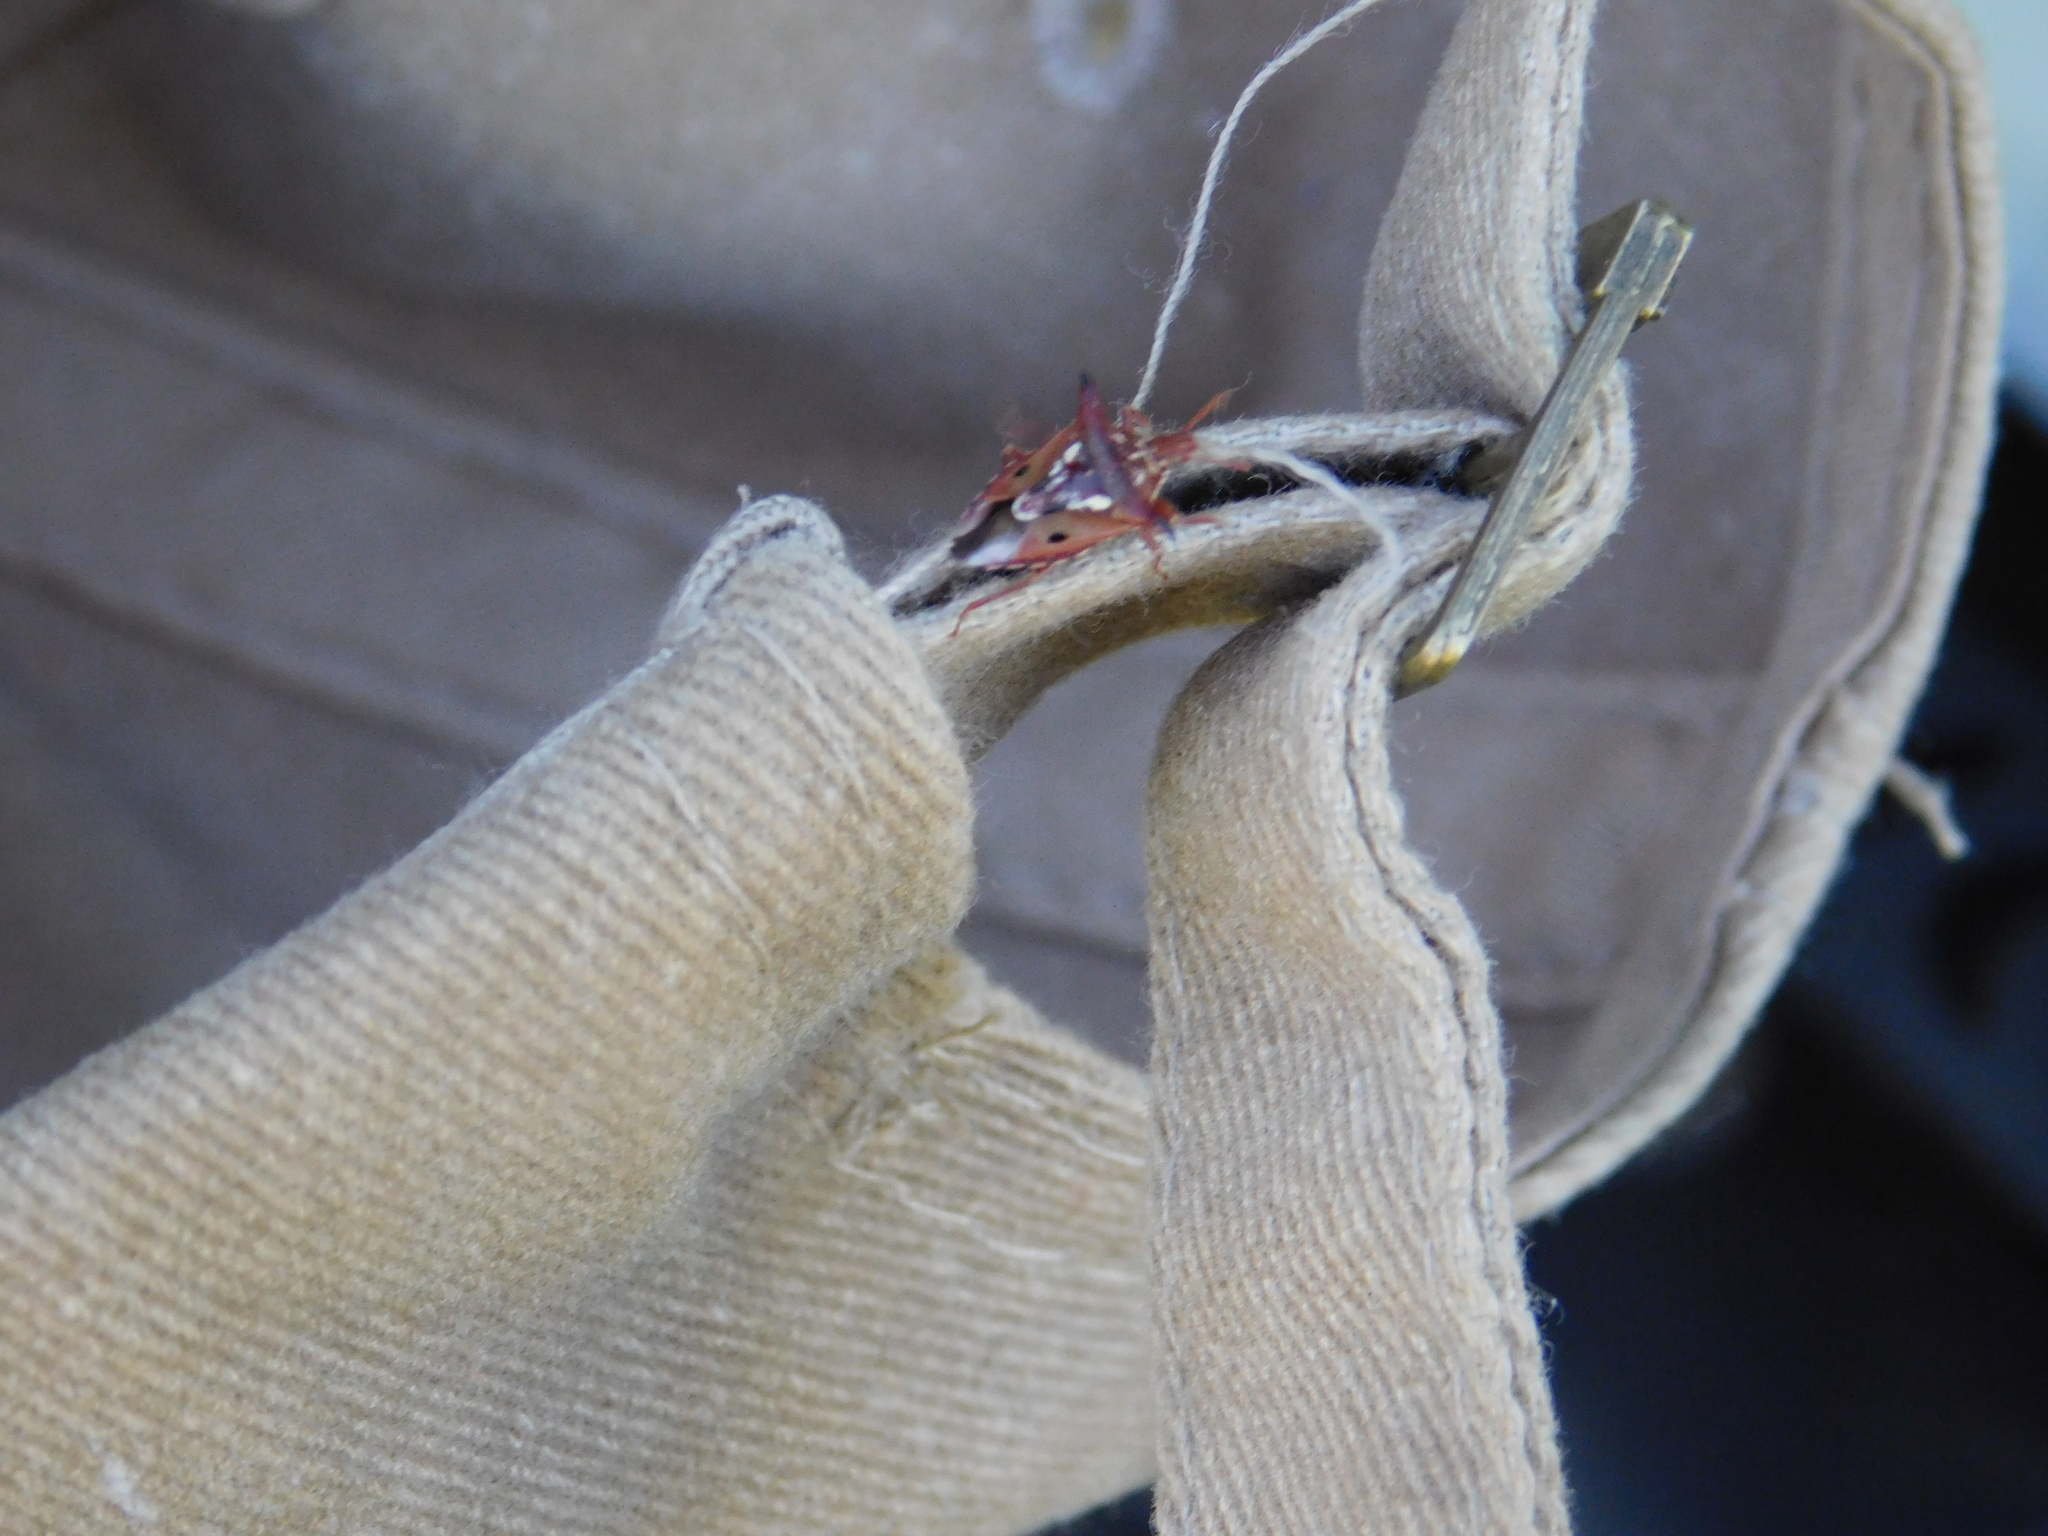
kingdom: Animalia
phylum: Arthropoda
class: Insecta
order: Hemiptera
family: Pentatomidae
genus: Tylospilus
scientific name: Tylospilus nigrobinotatus
